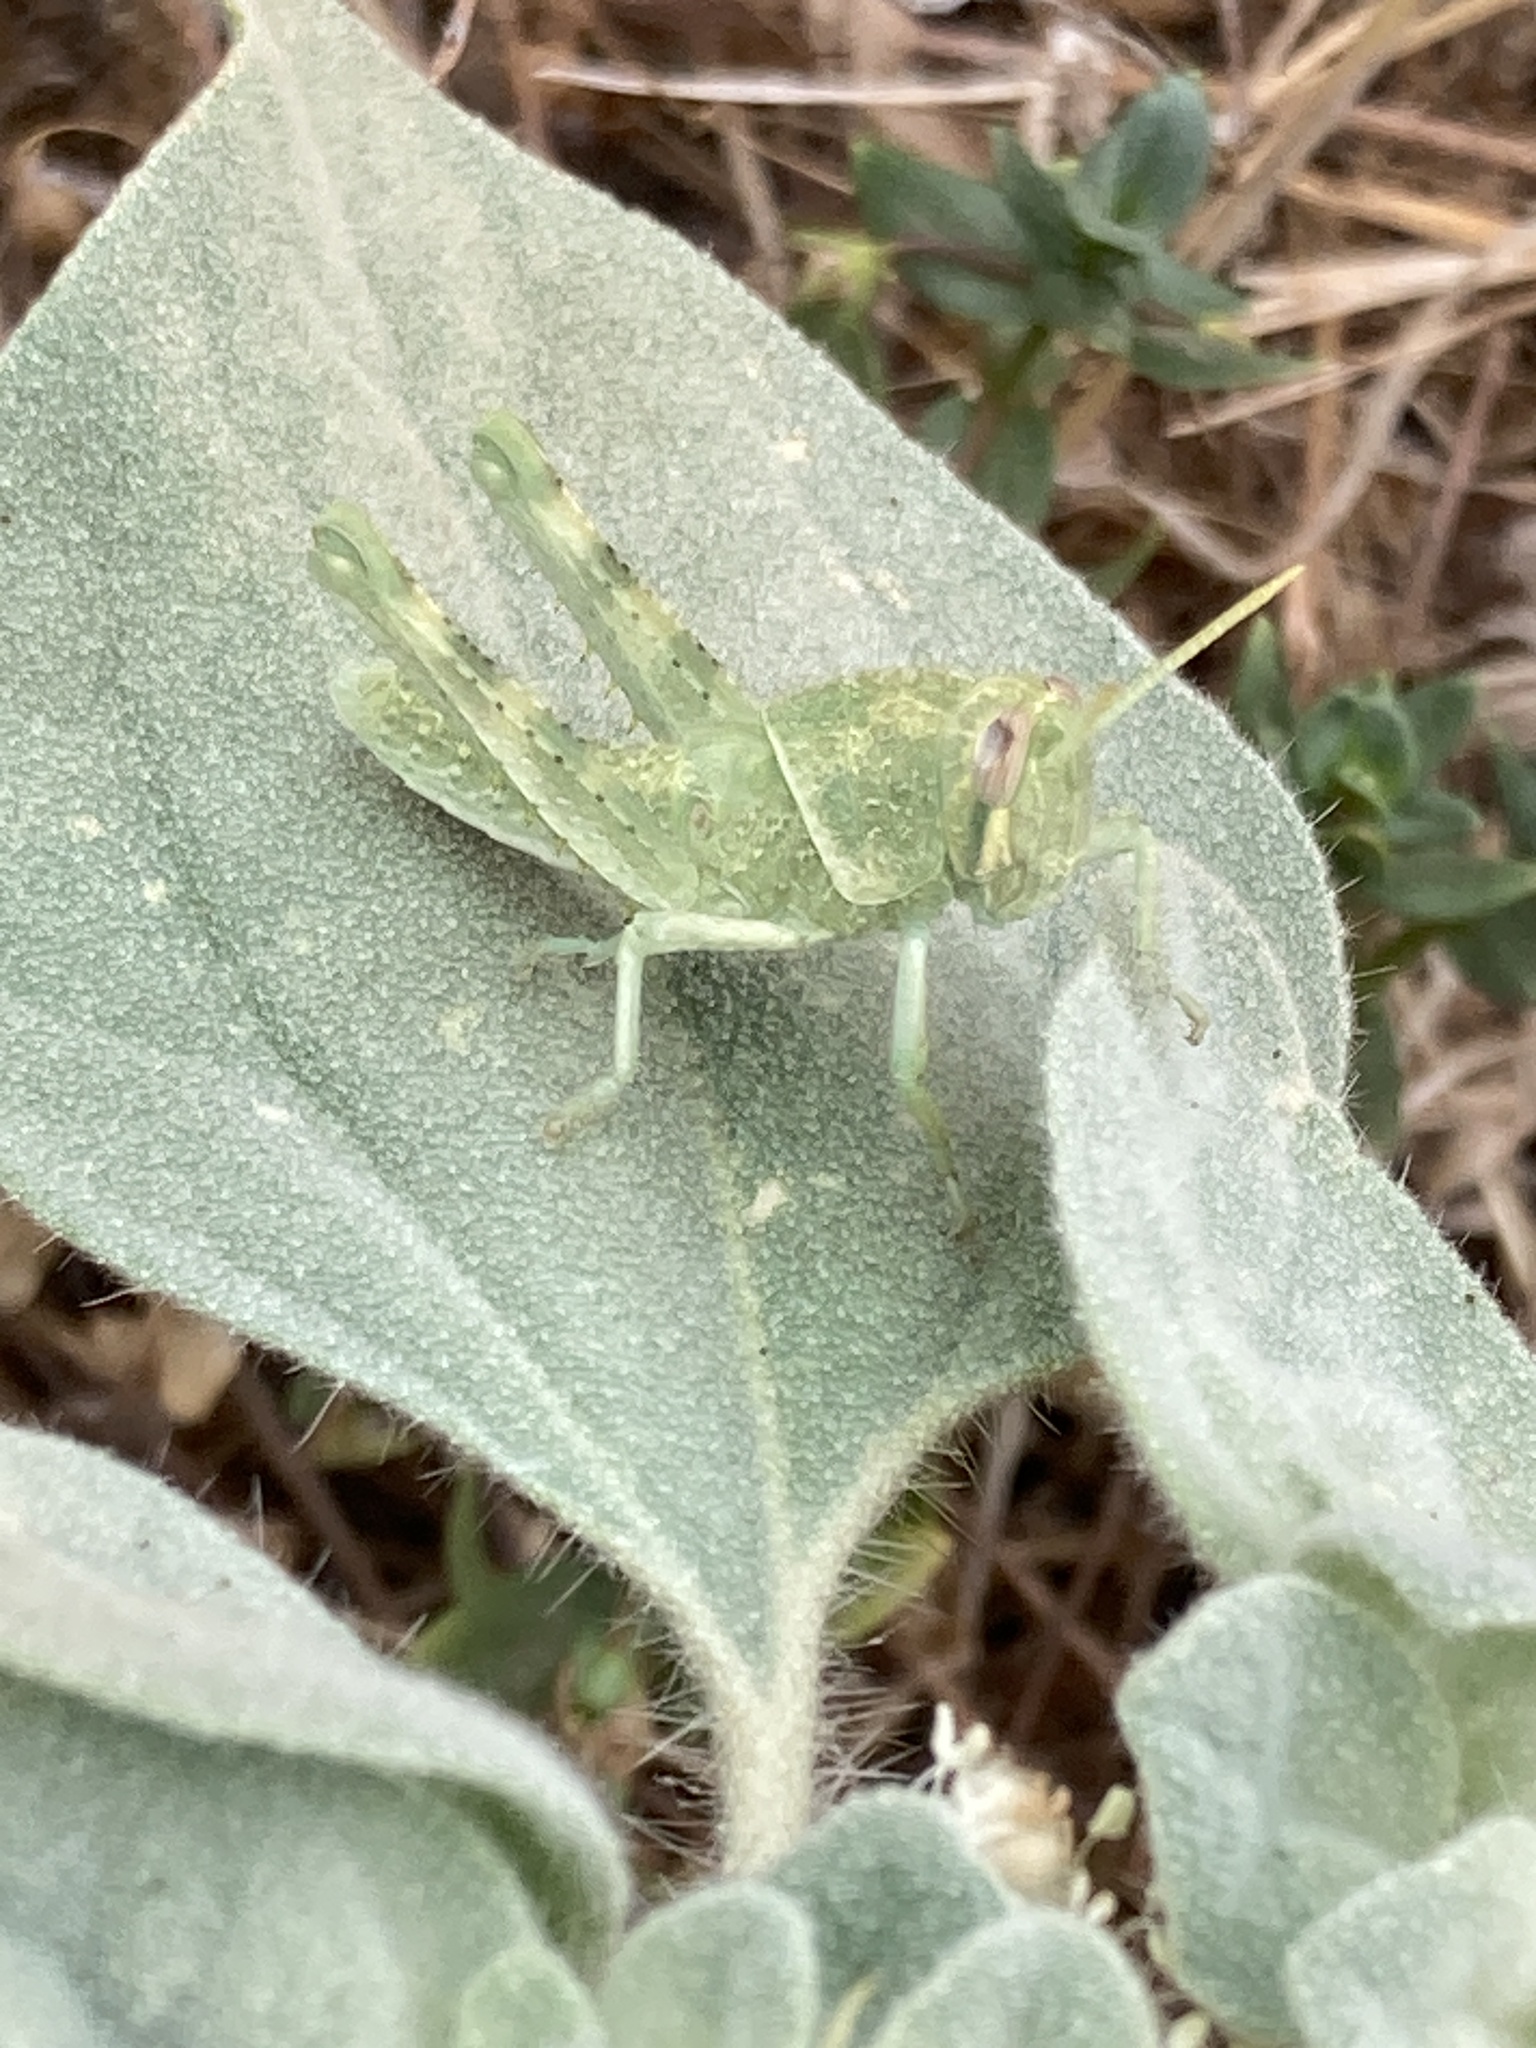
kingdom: Animalia
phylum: Arthropoda
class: Insecta
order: Orthoptera
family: Acrididae
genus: Schistocerca
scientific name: Schistocerca nitens
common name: Vagrant grasshopper
